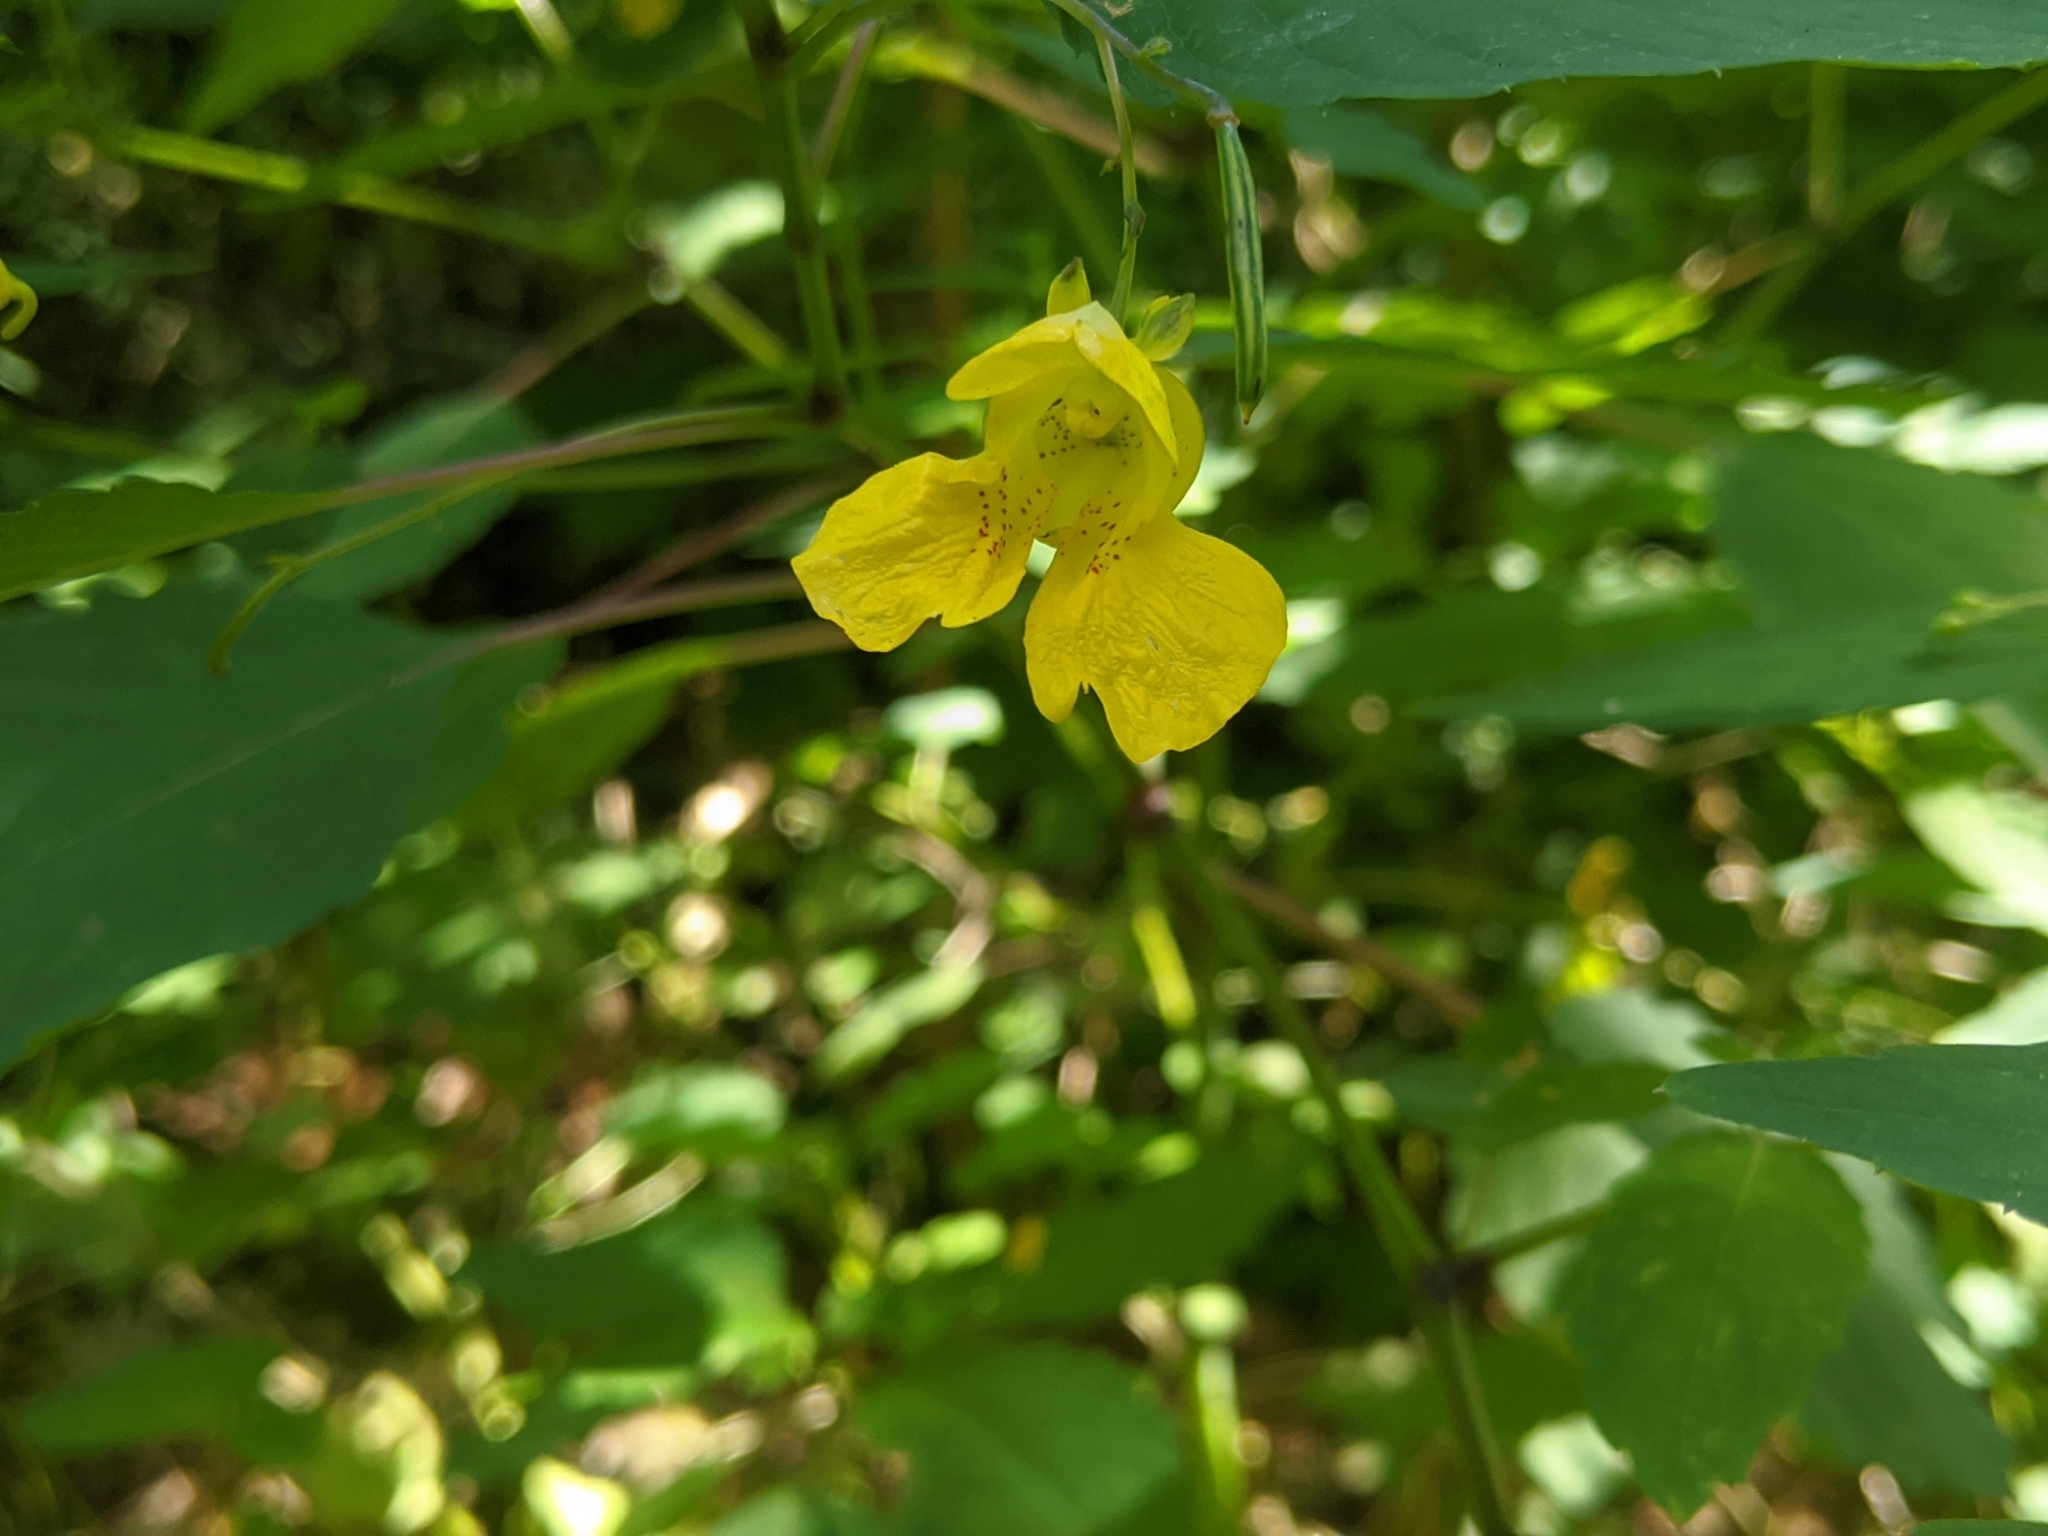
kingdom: Plantae
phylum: Tracheophyta
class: Magnoliopsida
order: Ericales
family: Balsaminaceae
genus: Impatiens
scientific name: Impatiens pallida
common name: Pale snapweed
